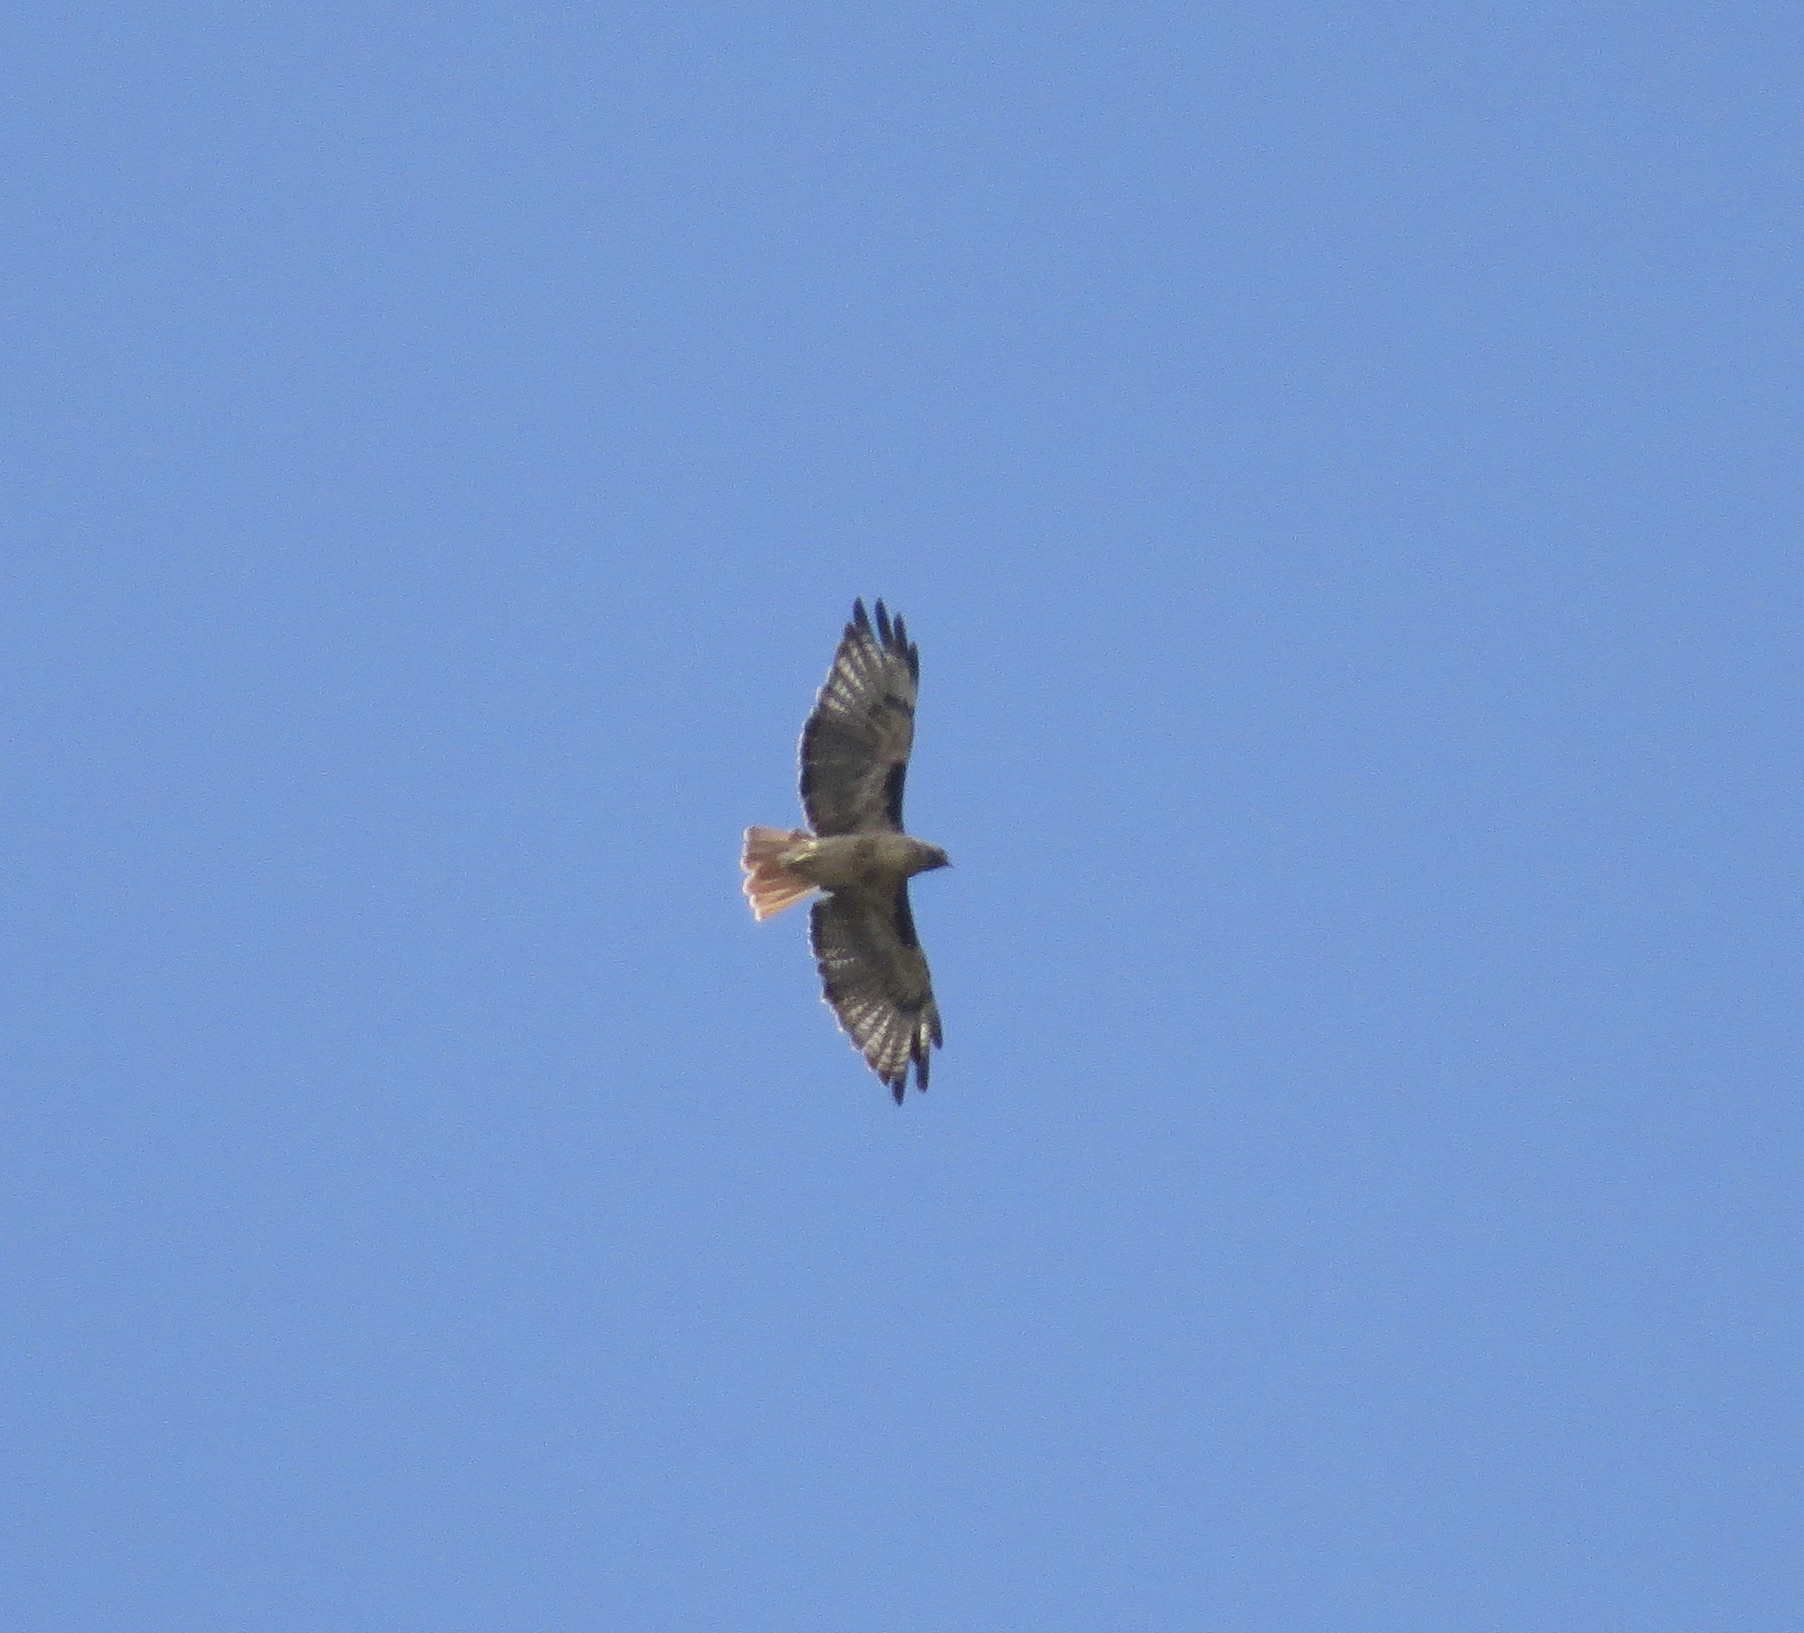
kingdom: Animalia
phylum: Chordata
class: Aves
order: Accipitriformes
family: Accipitridae
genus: Buteo
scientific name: Buteo jamaicensis
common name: Red-tailed hawk
